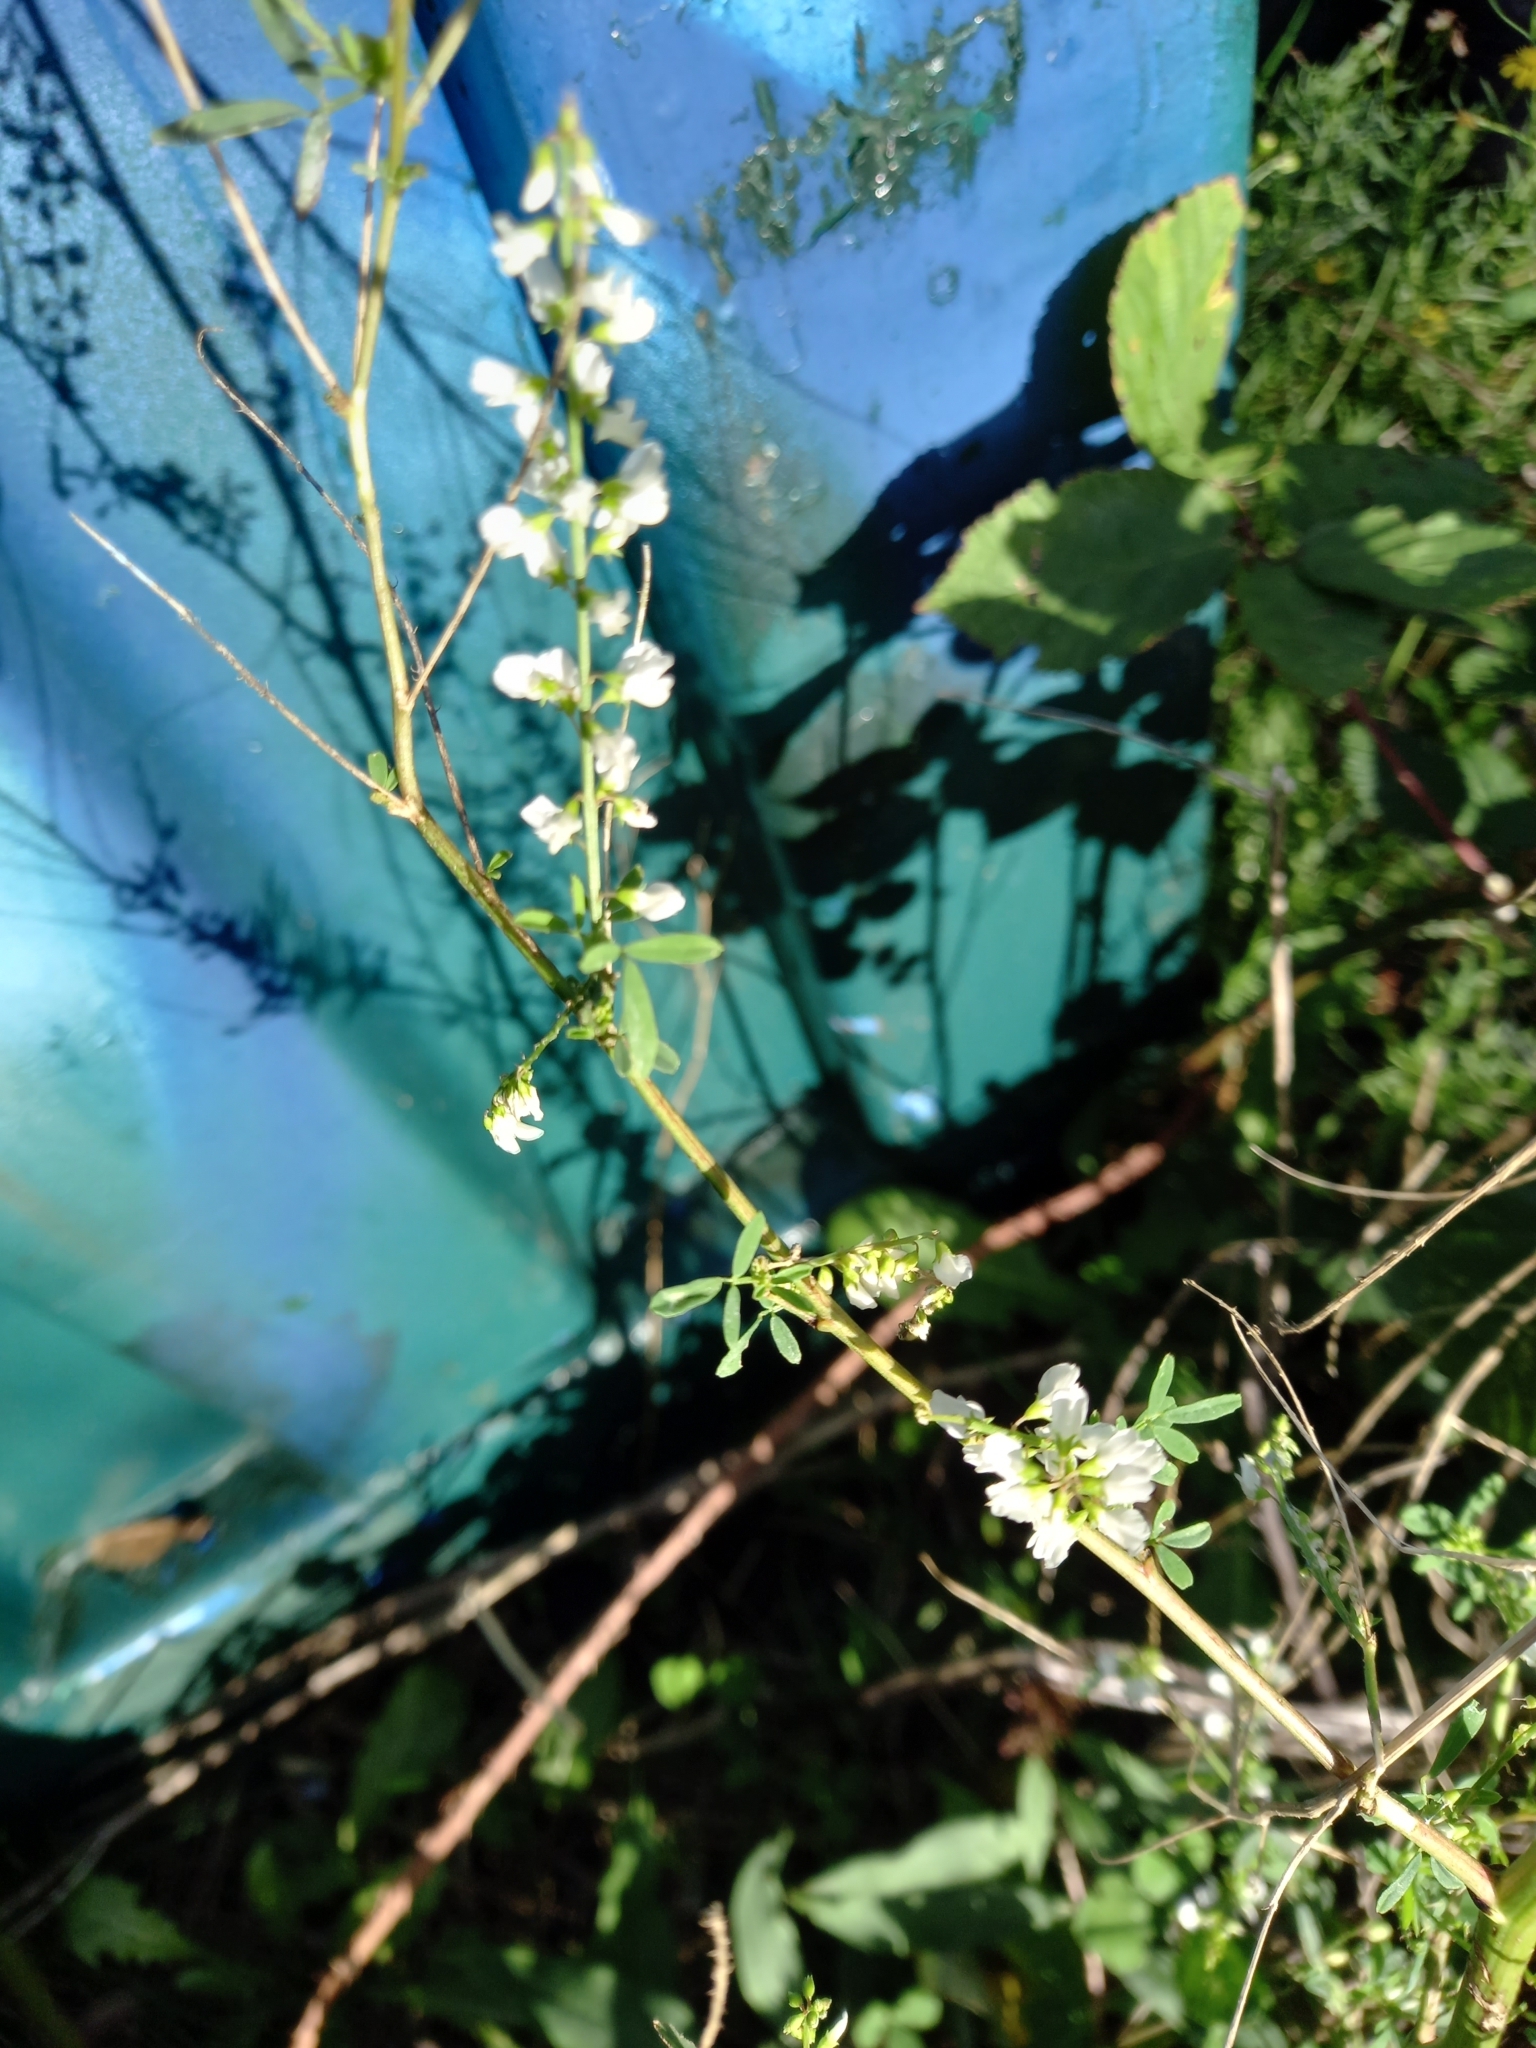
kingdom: Plantae
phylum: Tracheophyta
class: Magnoliopsida
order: Fabales
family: Fabaceae
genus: Melilotus
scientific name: Melilotus albus
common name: White melilot
